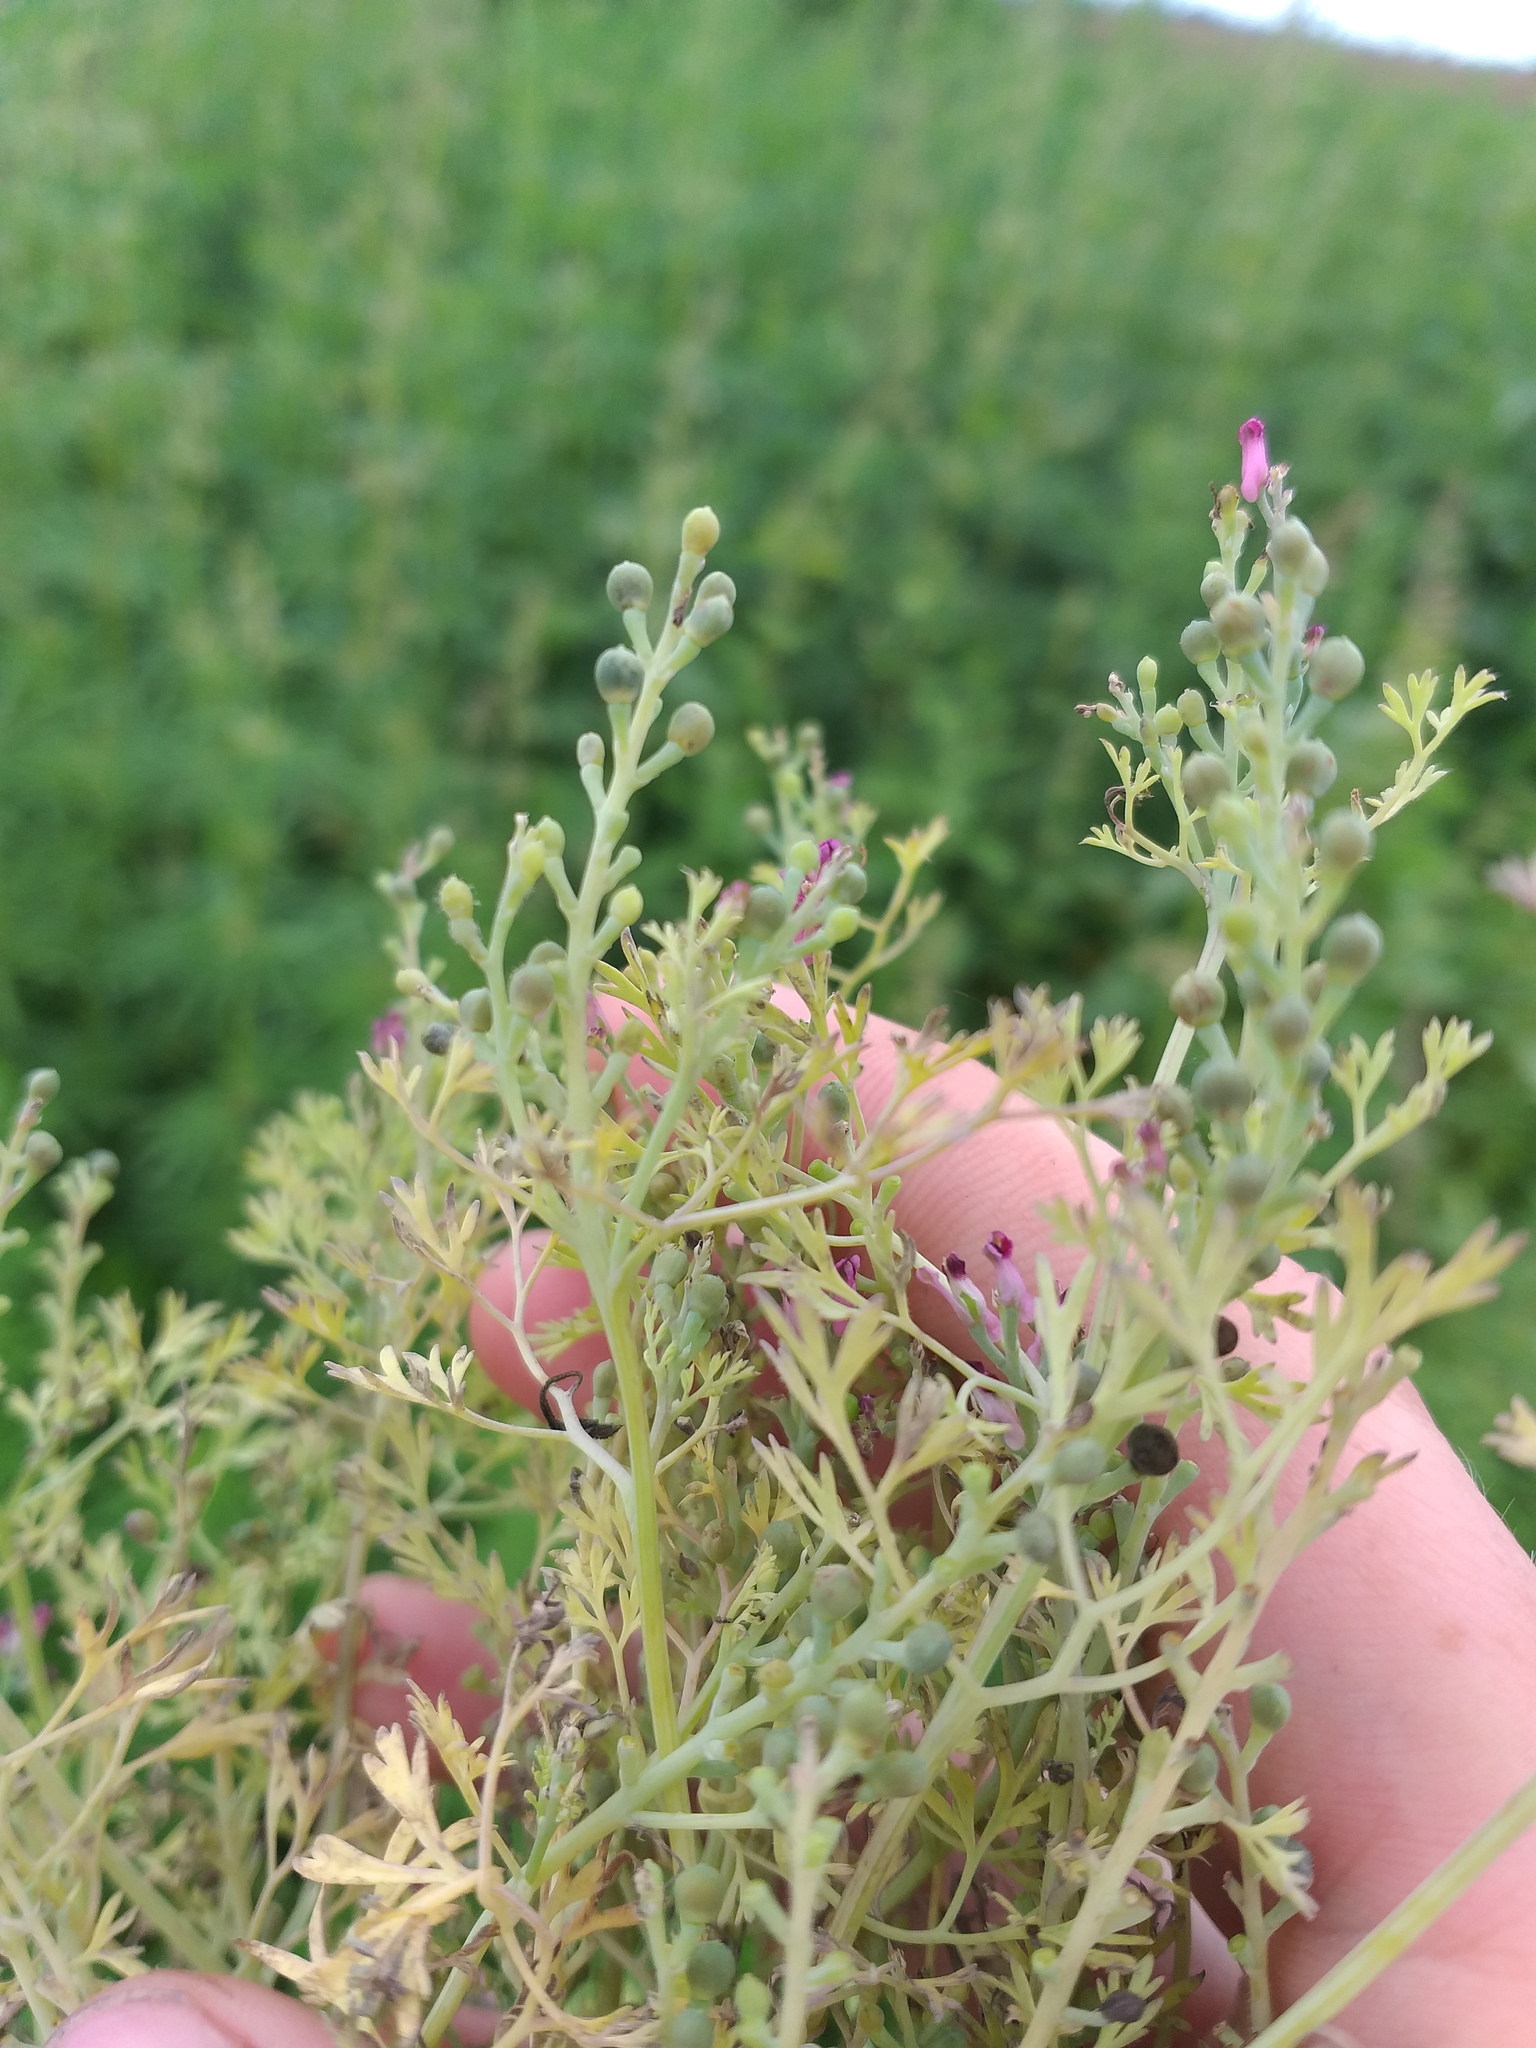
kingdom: Plantae
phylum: Tracheophyta
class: Magnoliopsida
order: Ranunculales
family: Papaveraceae
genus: Fumaria
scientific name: Fumaria schleicheri
